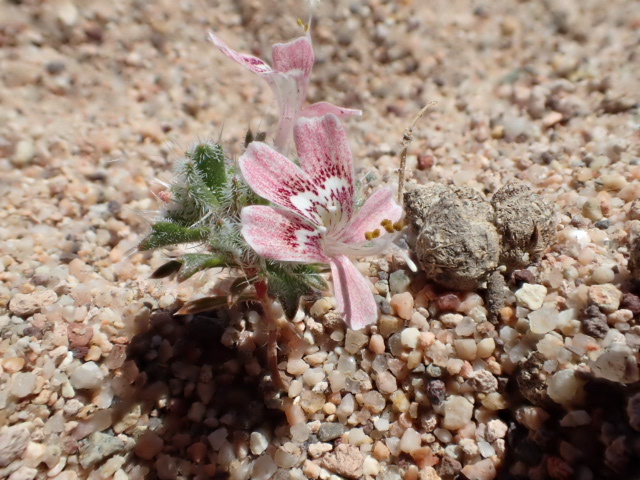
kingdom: Plantae
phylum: Tracheophyta
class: Magnoliopsida
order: Ericales
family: Polemoniaceae
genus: Loeseliastrum
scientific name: Loeseliastrum matthewsii
